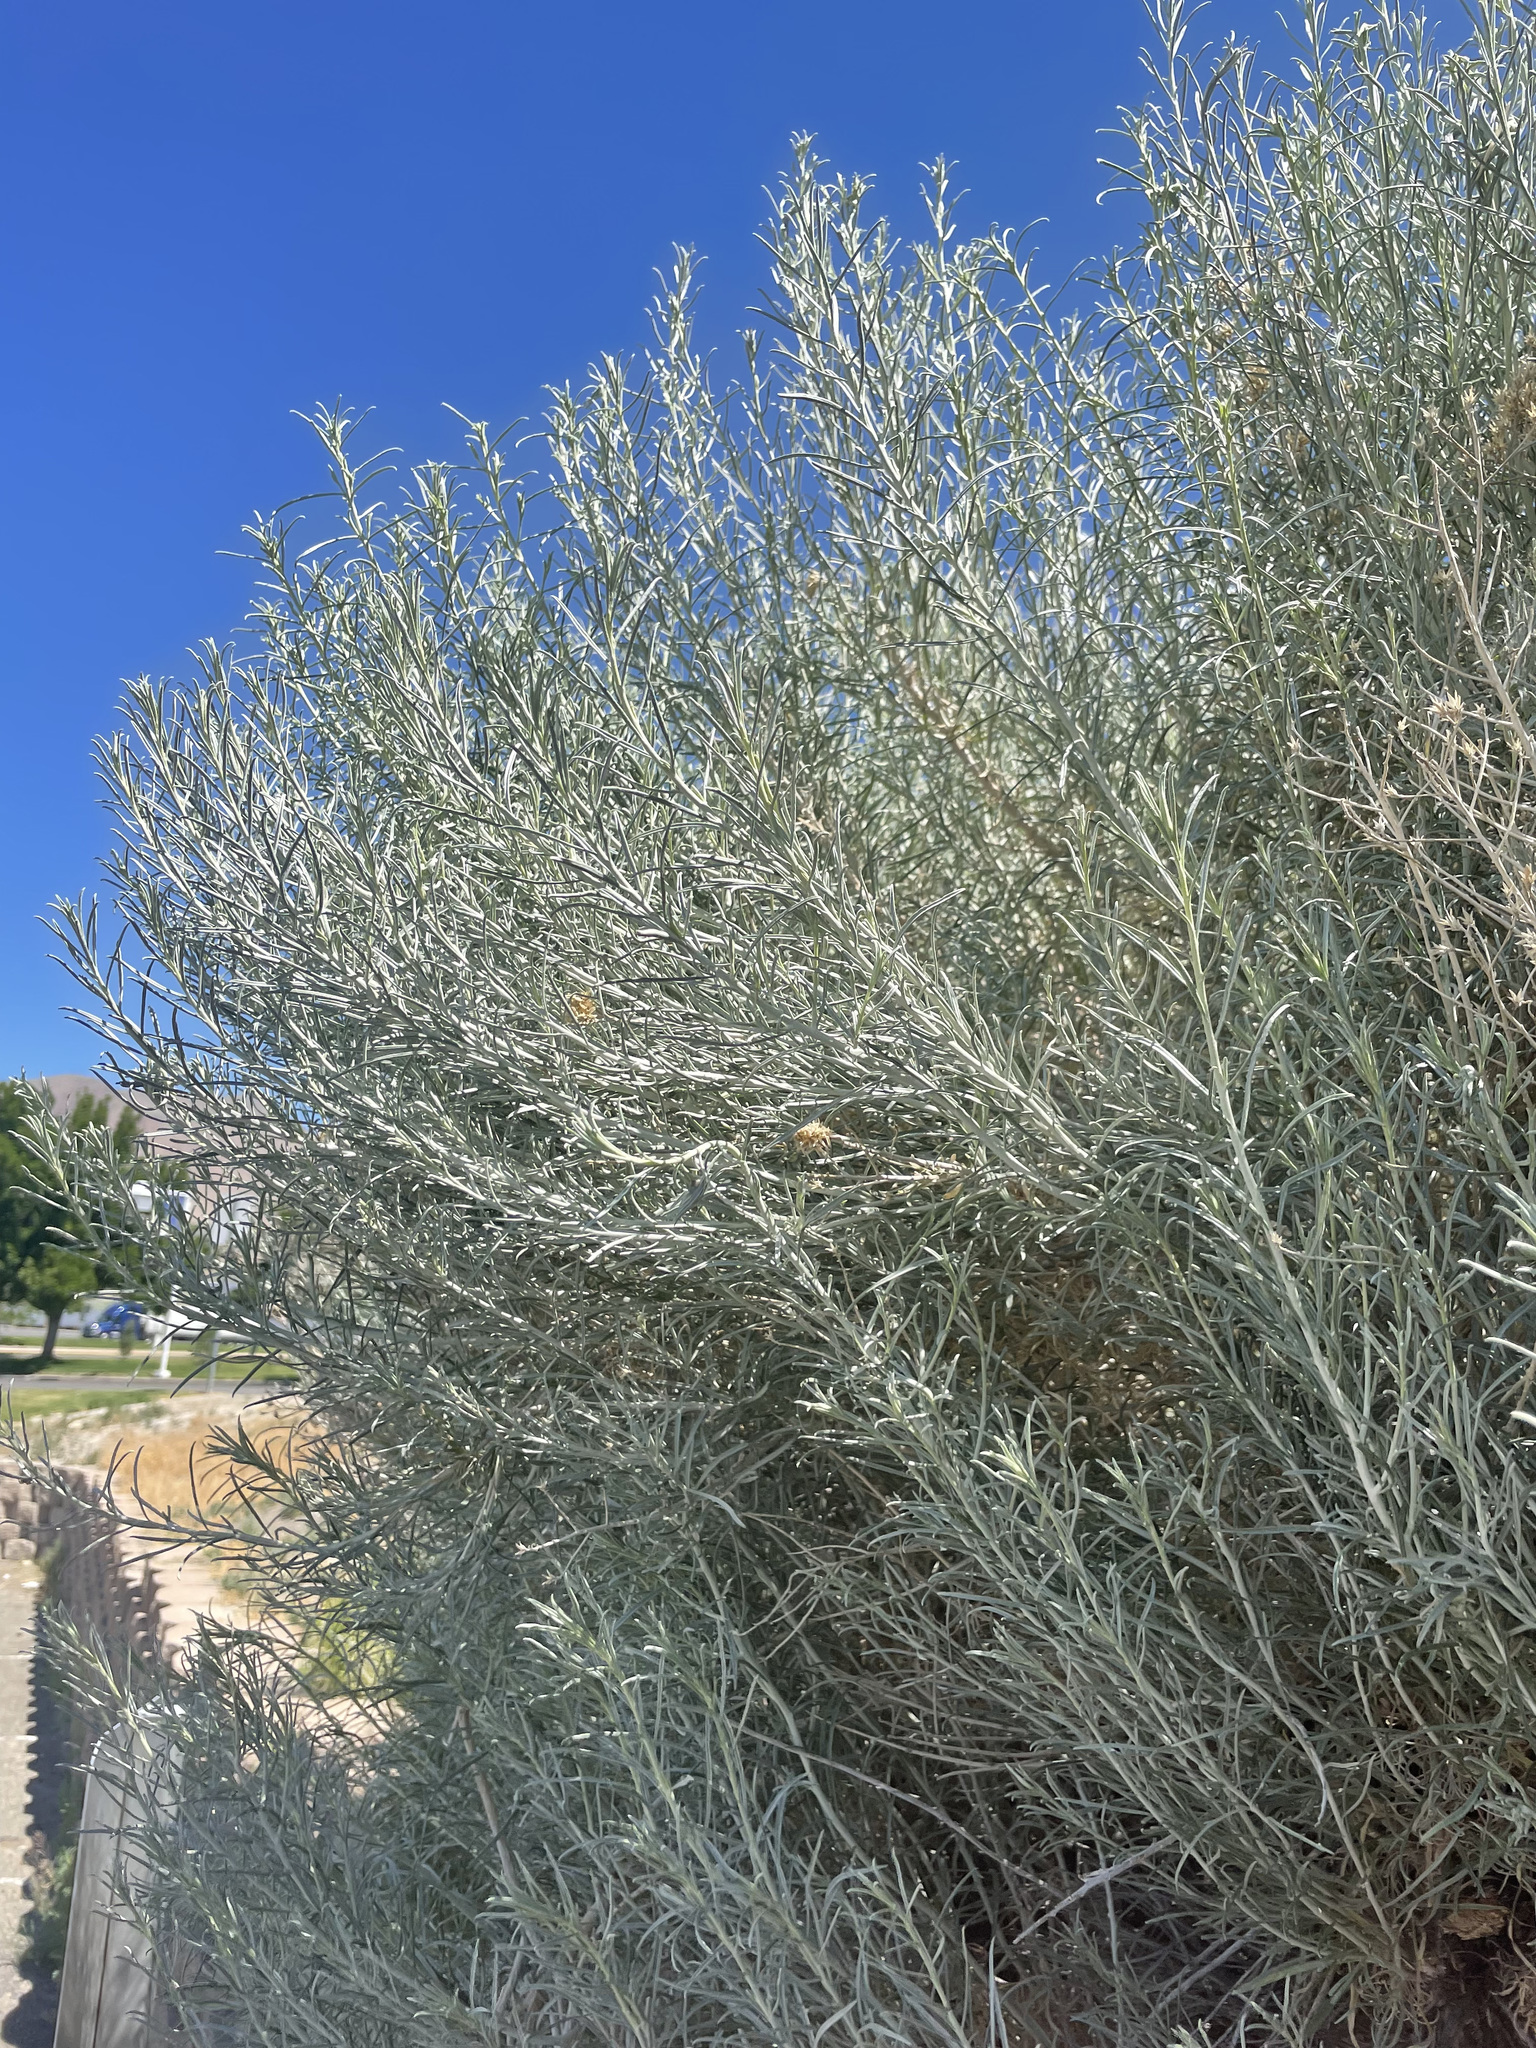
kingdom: Plantae
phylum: Tracheophyta
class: Magnoliopsida
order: Asterales
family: Asteraceae
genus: Ericameria
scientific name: Ericameria nauseosa
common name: Rubber rabbitbrush
